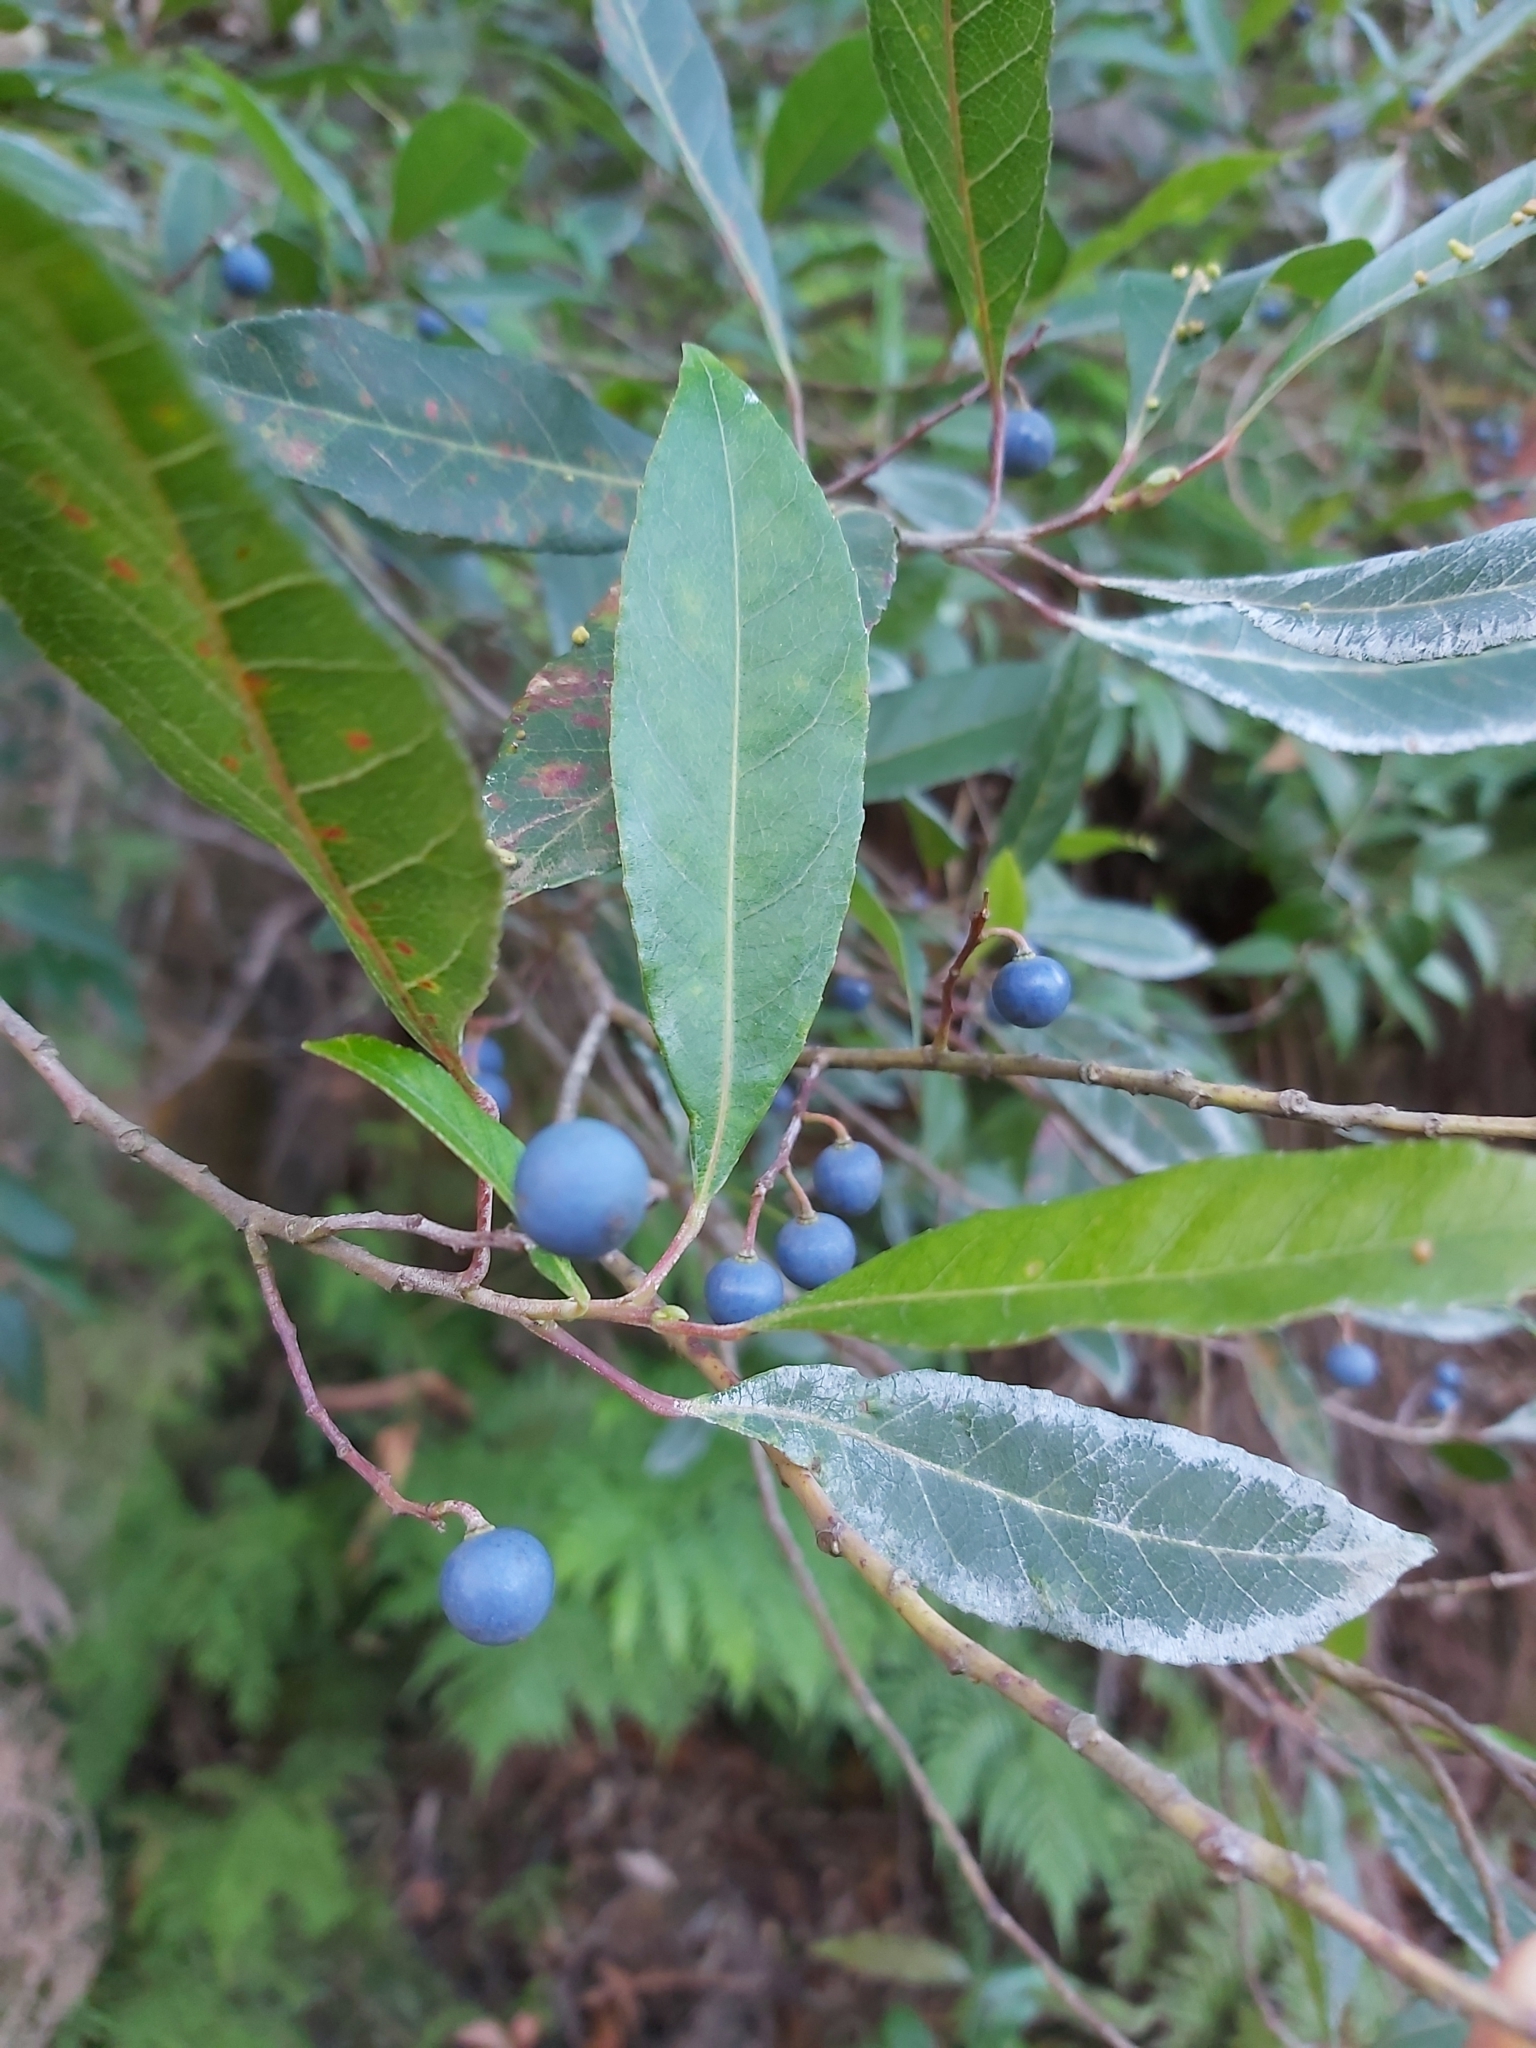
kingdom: Plantae
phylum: Tracheophyta
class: Magnoliopsida
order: Oxalidales
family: Elaeocarpaceae
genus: Elaeocarpus
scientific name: Elaeocarpus reticulatus
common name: Ash quandong
